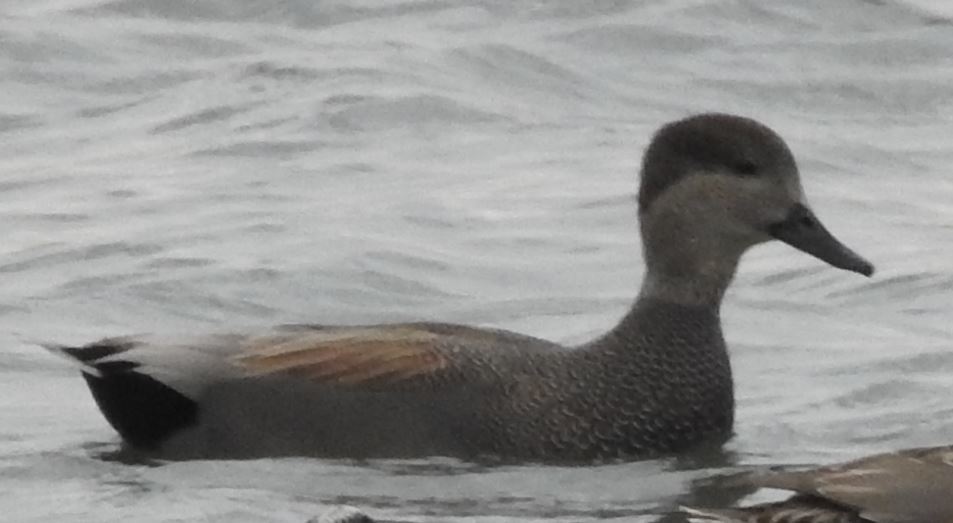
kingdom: Animalia
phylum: Chordata
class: Aves
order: Anseriformes
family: Anatidae
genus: Mareca
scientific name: Mareca strepera
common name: Gadwall
